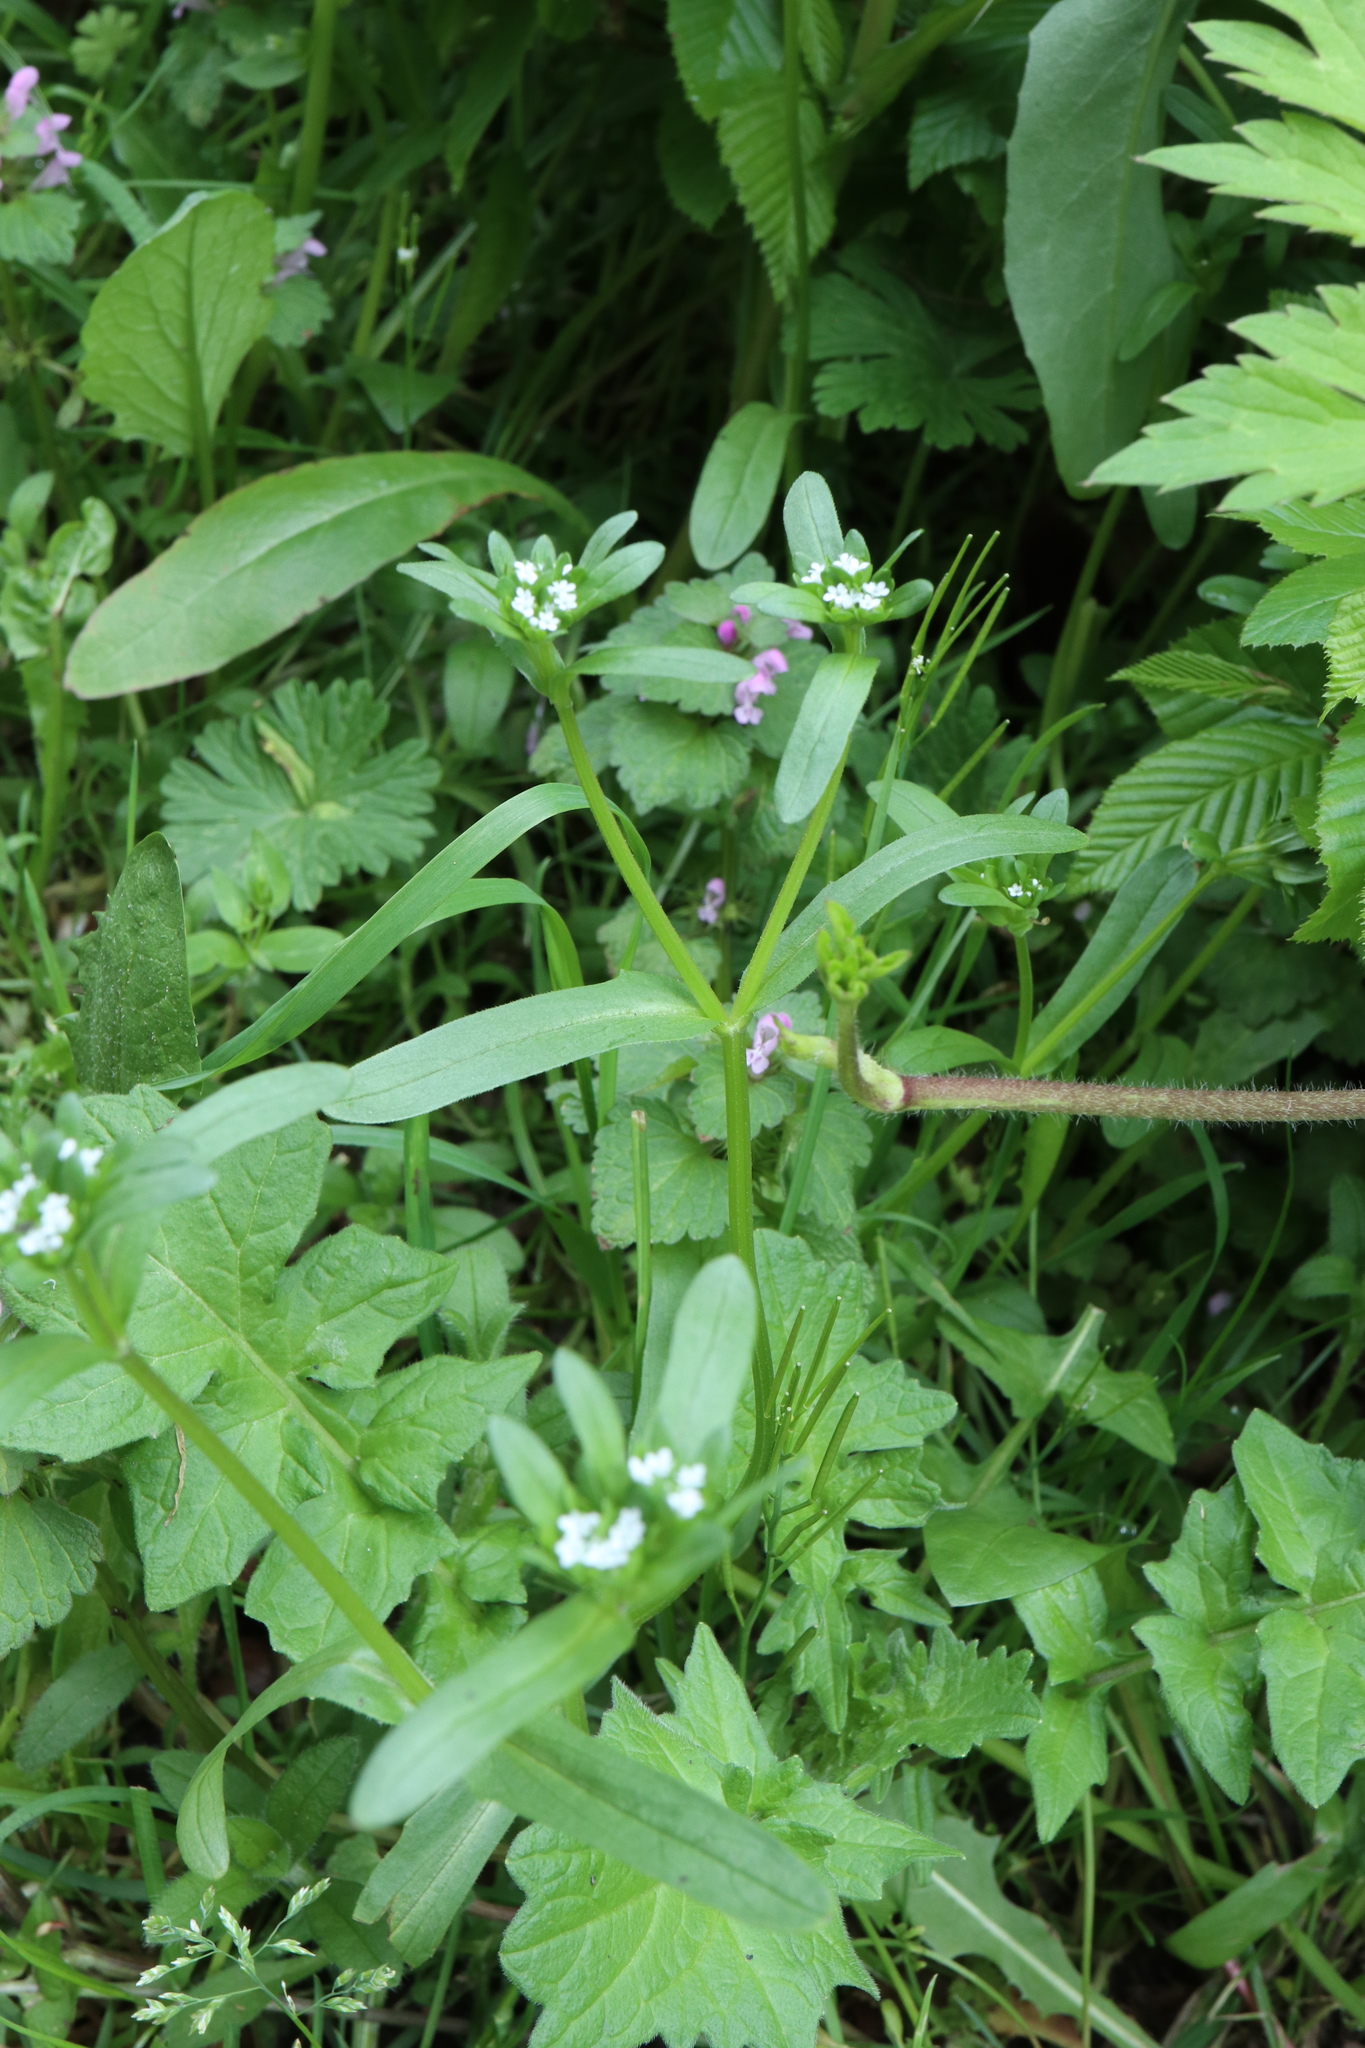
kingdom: Plantae
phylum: Tracheophyta
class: Magnoliopsida
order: Dipsacales
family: Caprifoliaceae
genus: Valerianella
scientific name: Valerianella locusta
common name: Common cornsalad
